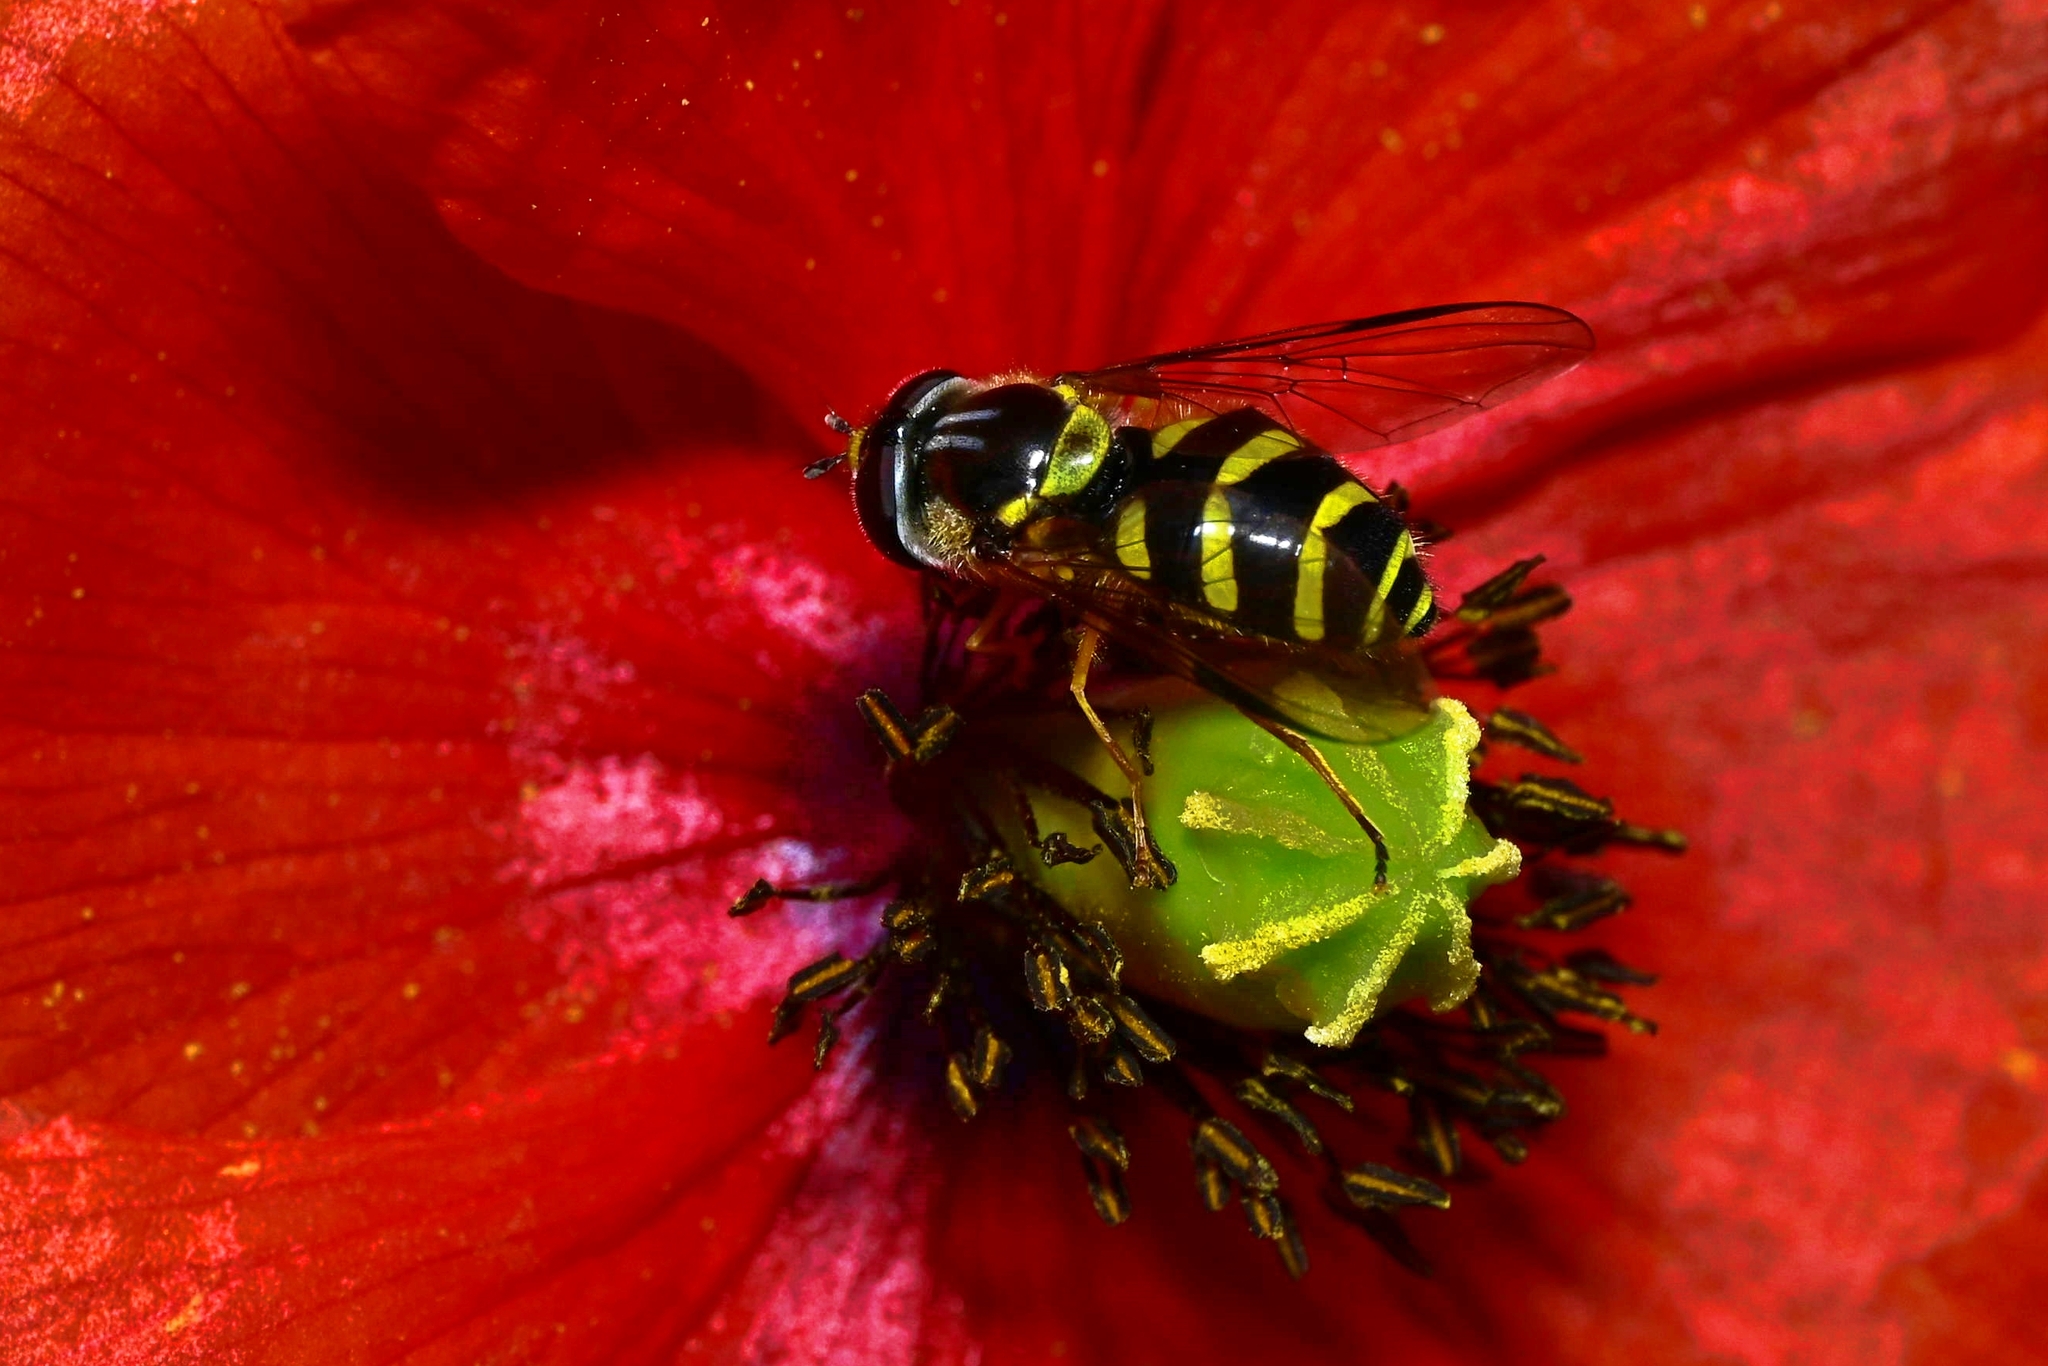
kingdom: Animalia
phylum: Arthropoda
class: Insecta
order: Diptera
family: Syrphidae
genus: Dasysyrphus
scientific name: Dasysyrphus albostriatus
